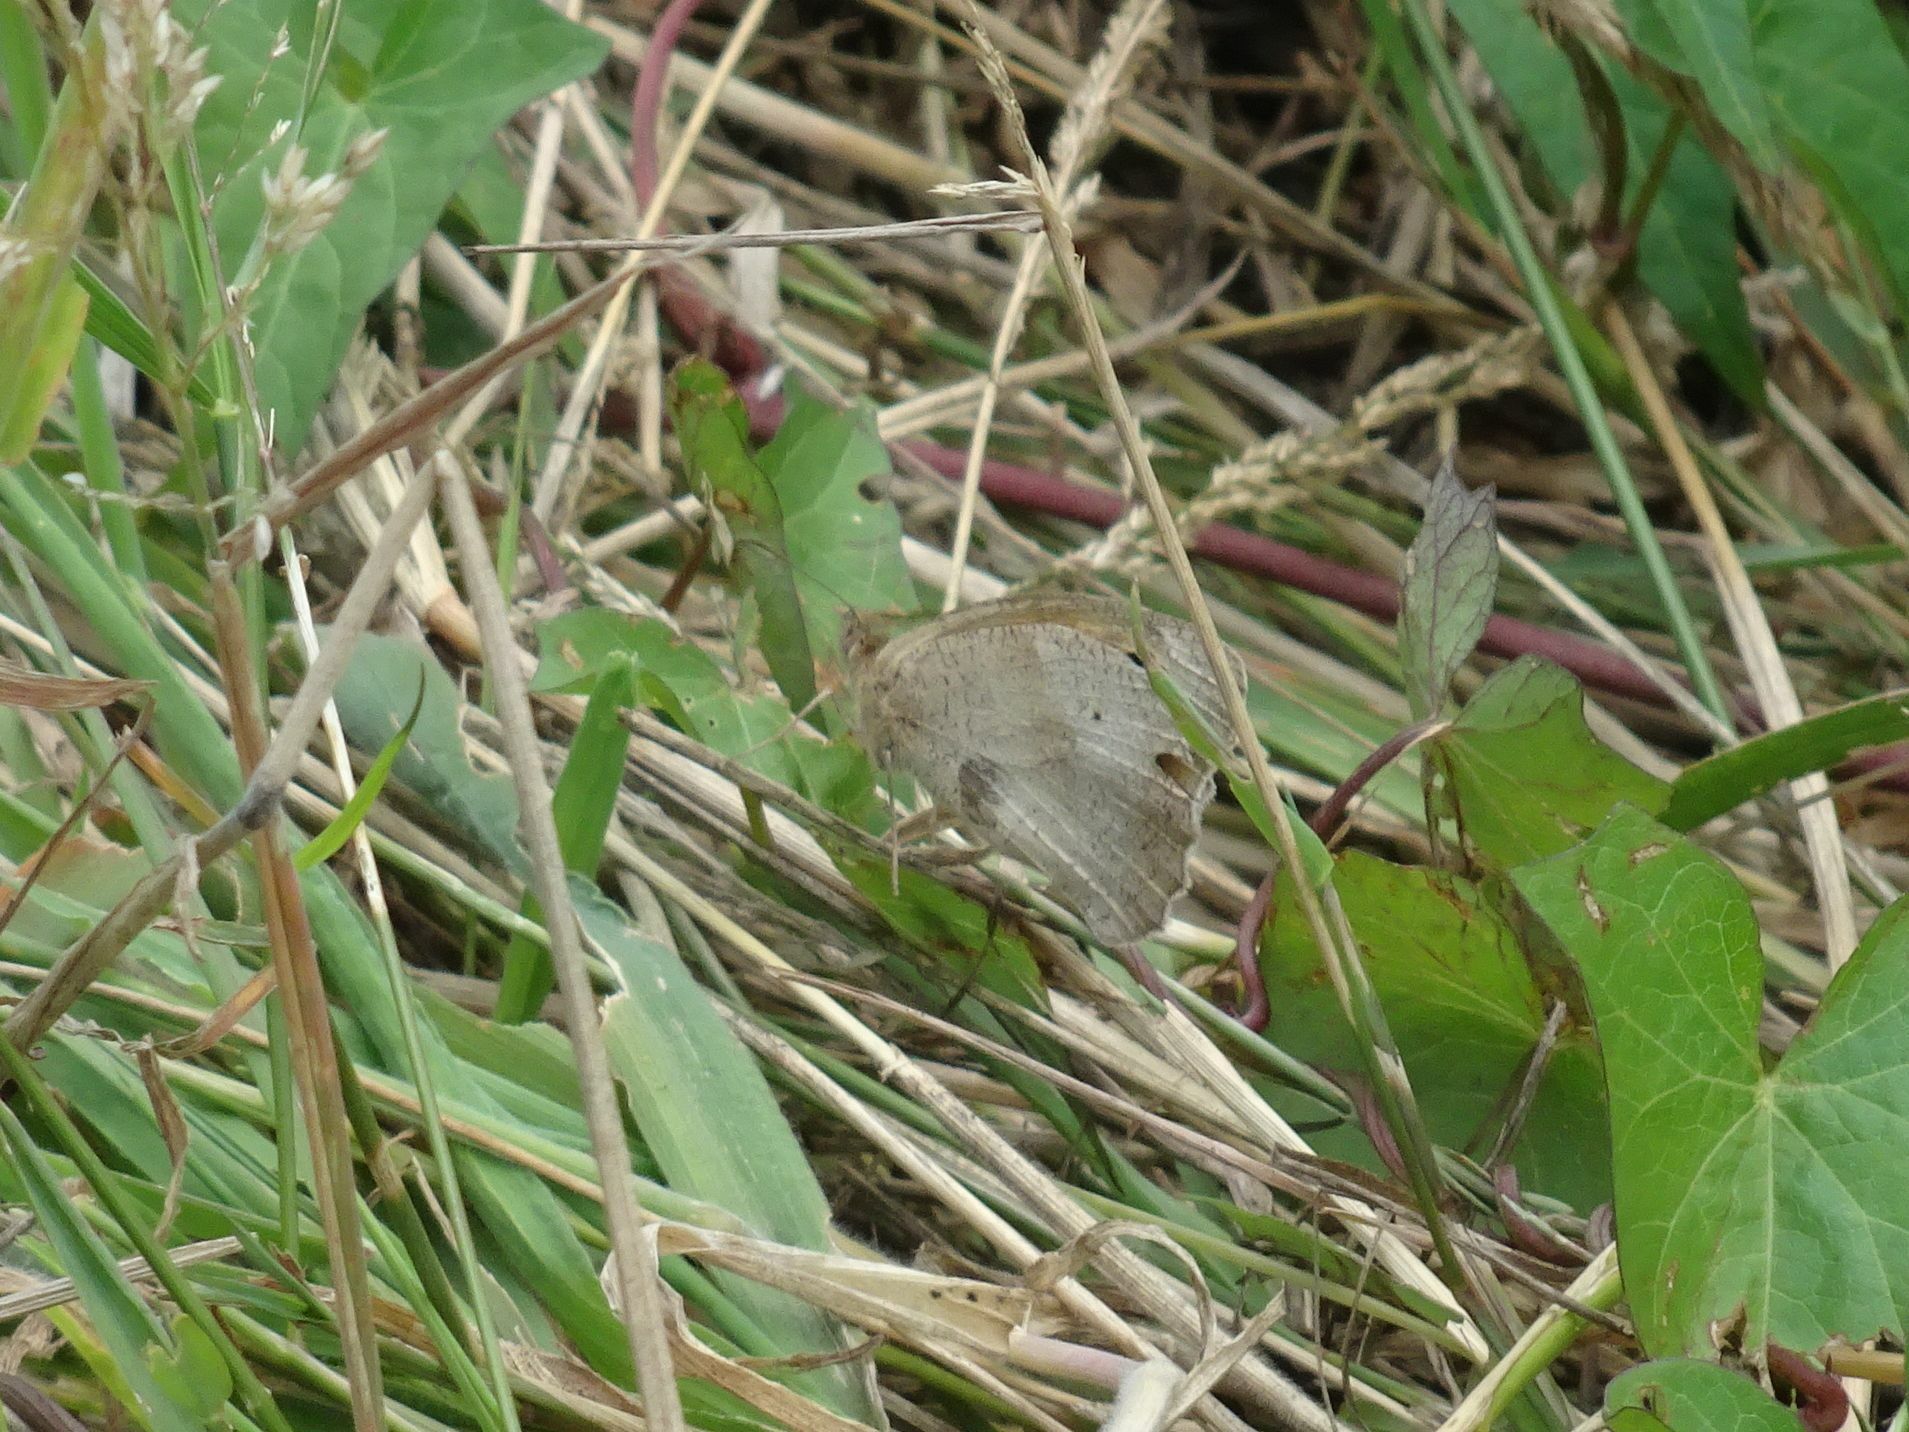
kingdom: Animalia
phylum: Arthropoda
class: Insecta
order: Lepidoptera
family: Nymphalidae
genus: Maniola
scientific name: Maniola jurtina
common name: Meadow brown
